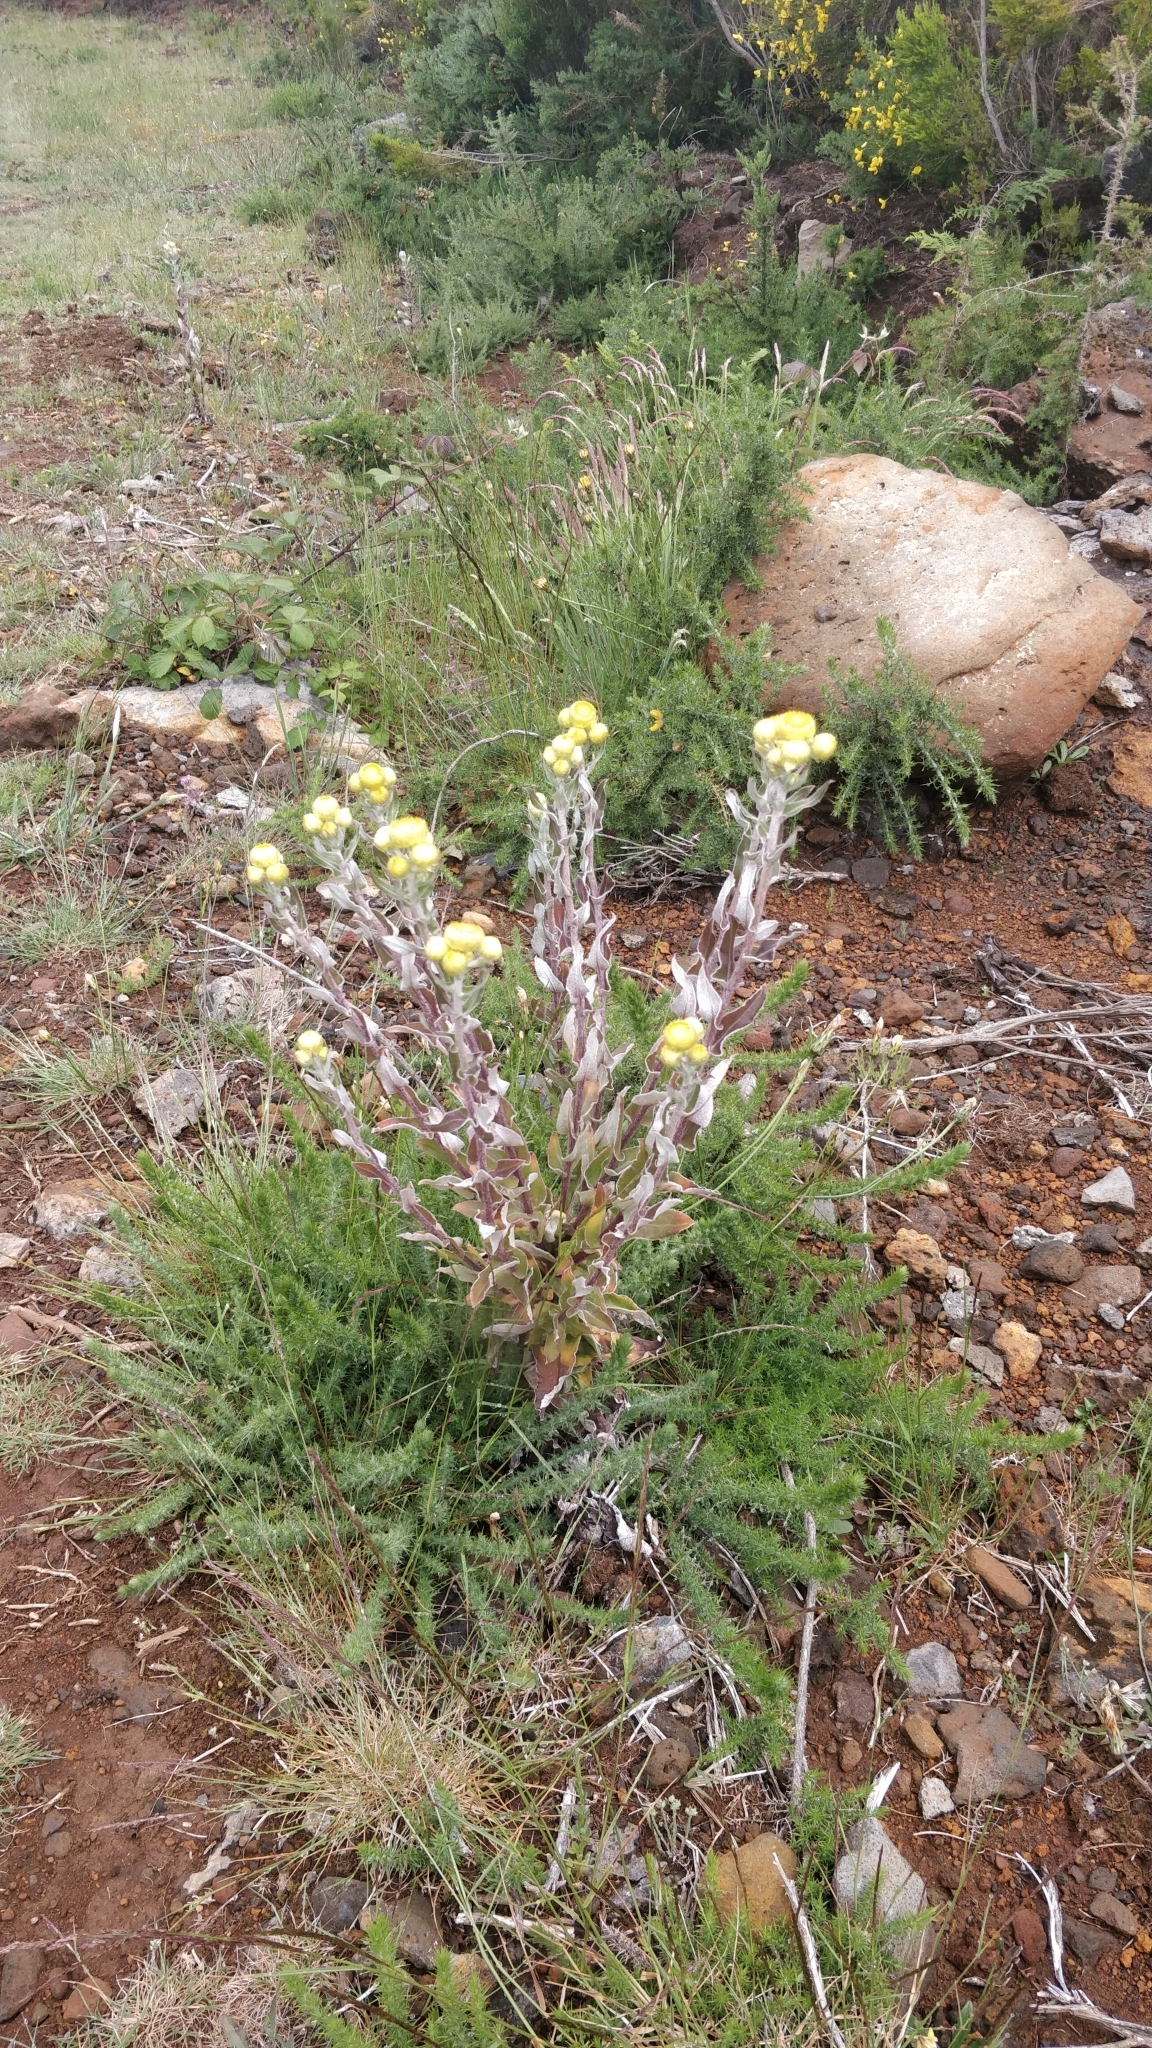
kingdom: Plantae
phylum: Tracheophyta
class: Magnoliopsida
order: Asterales
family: Asteraceae
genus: Helichrysum
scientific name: Helichrysum foetidum
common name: Stinking everlasting
